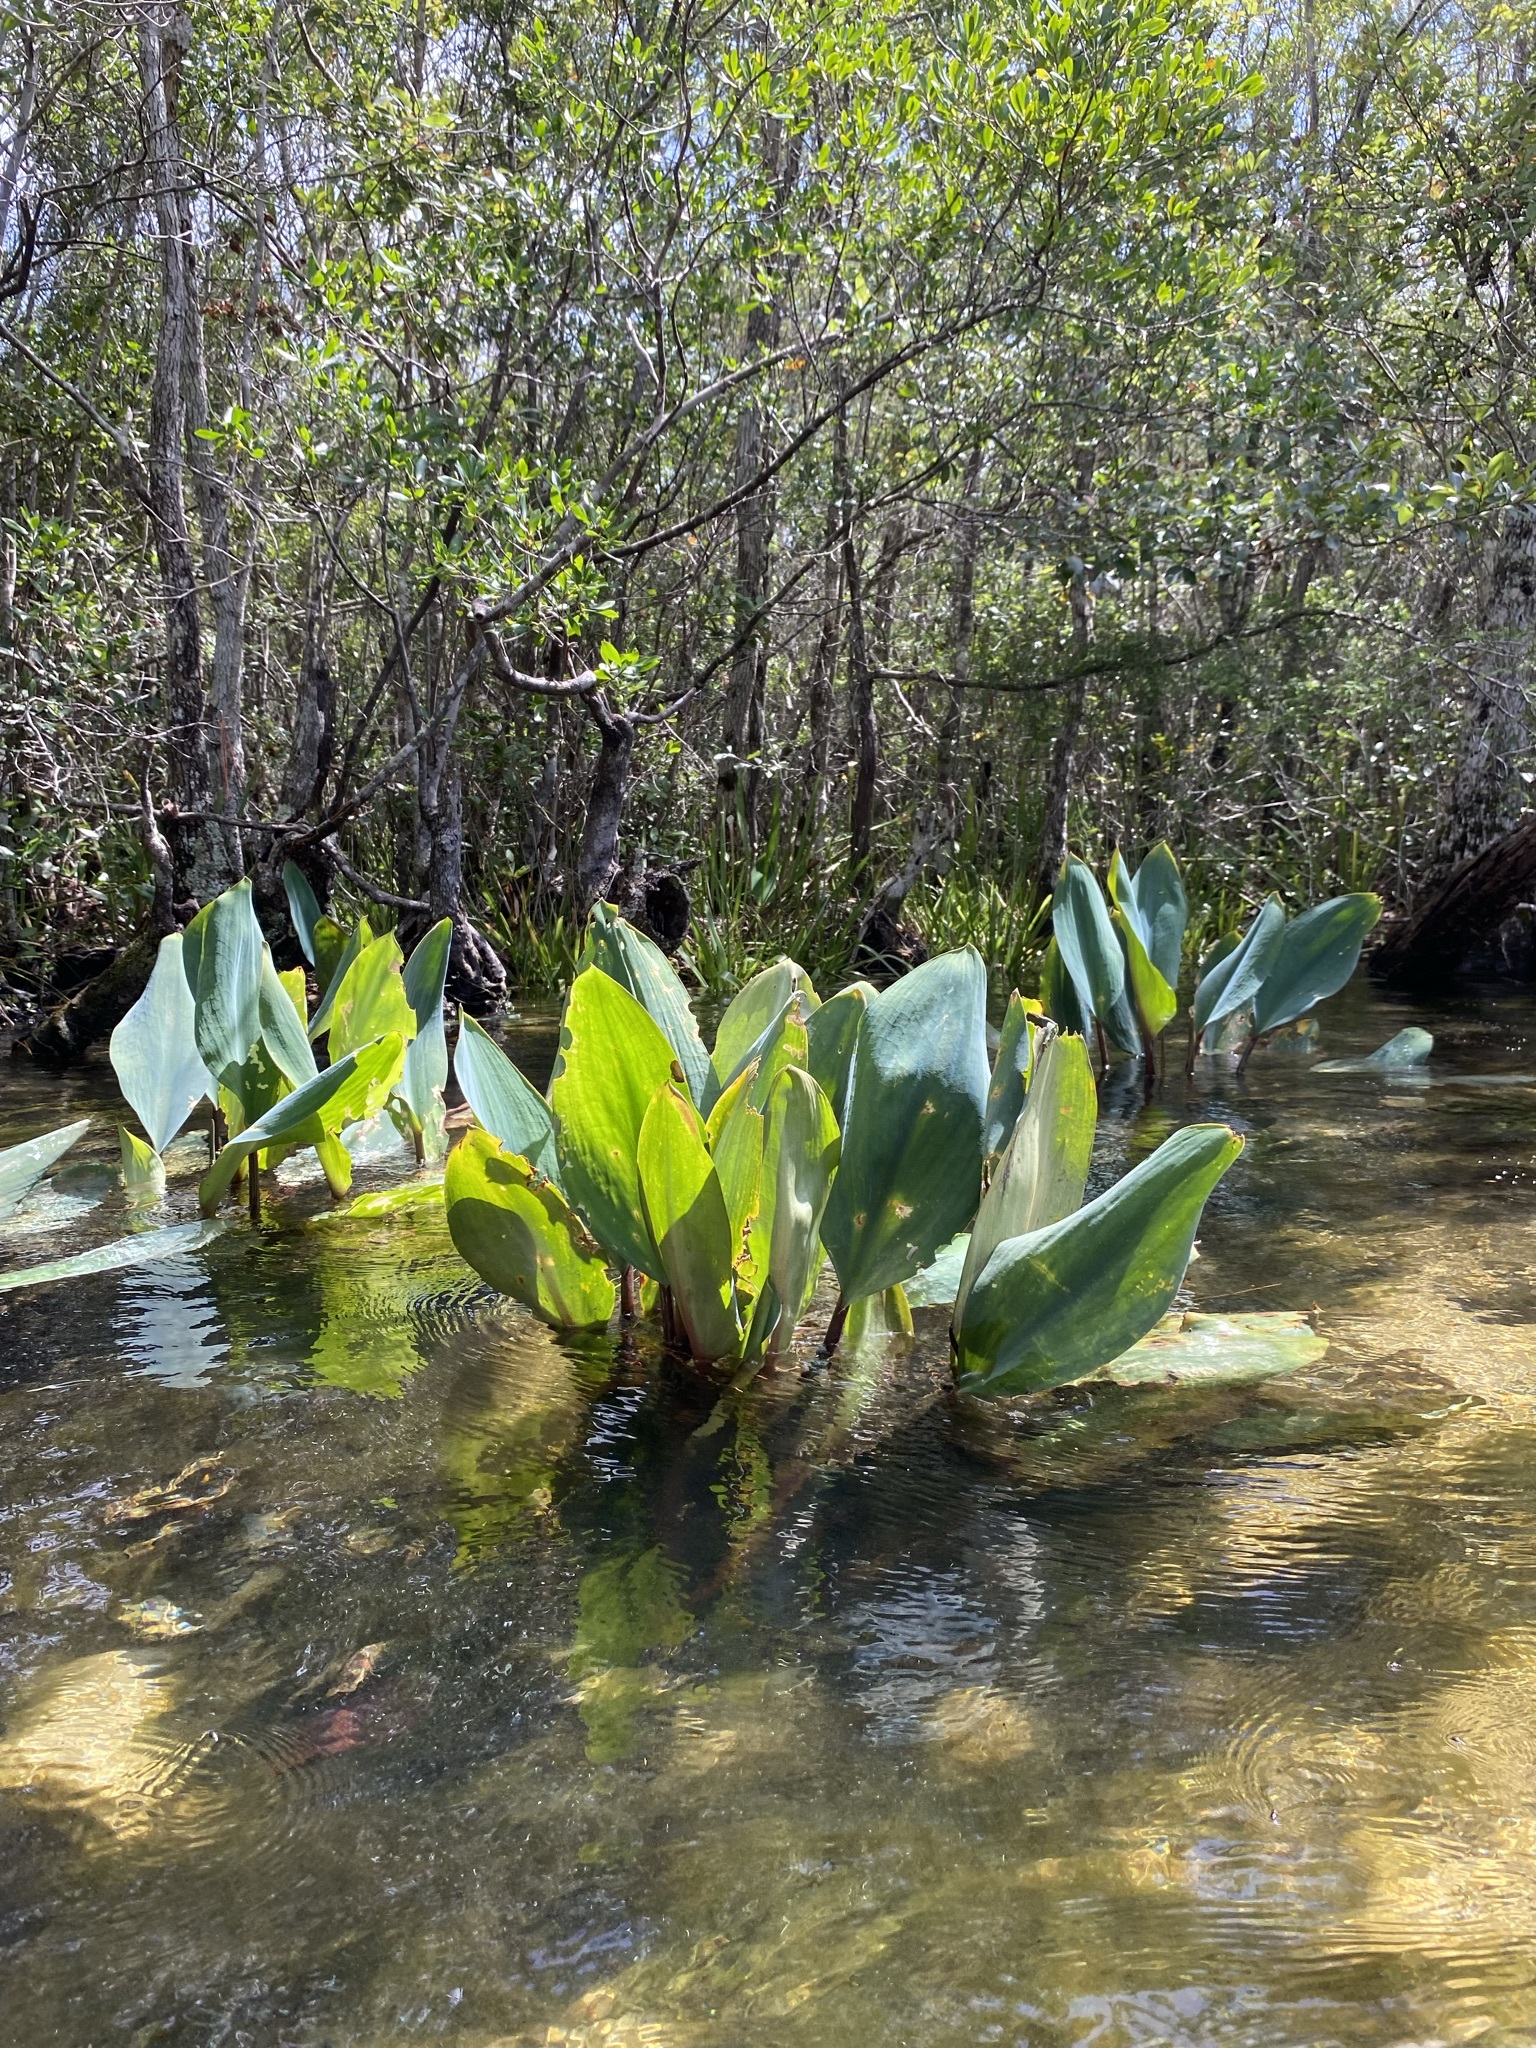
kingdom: Plantae
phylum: Tracheophyta
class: Liliopsida
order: Alismatales
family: Araceae
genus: Orontium
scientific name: Orontium aquaticum
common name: Golden-club
